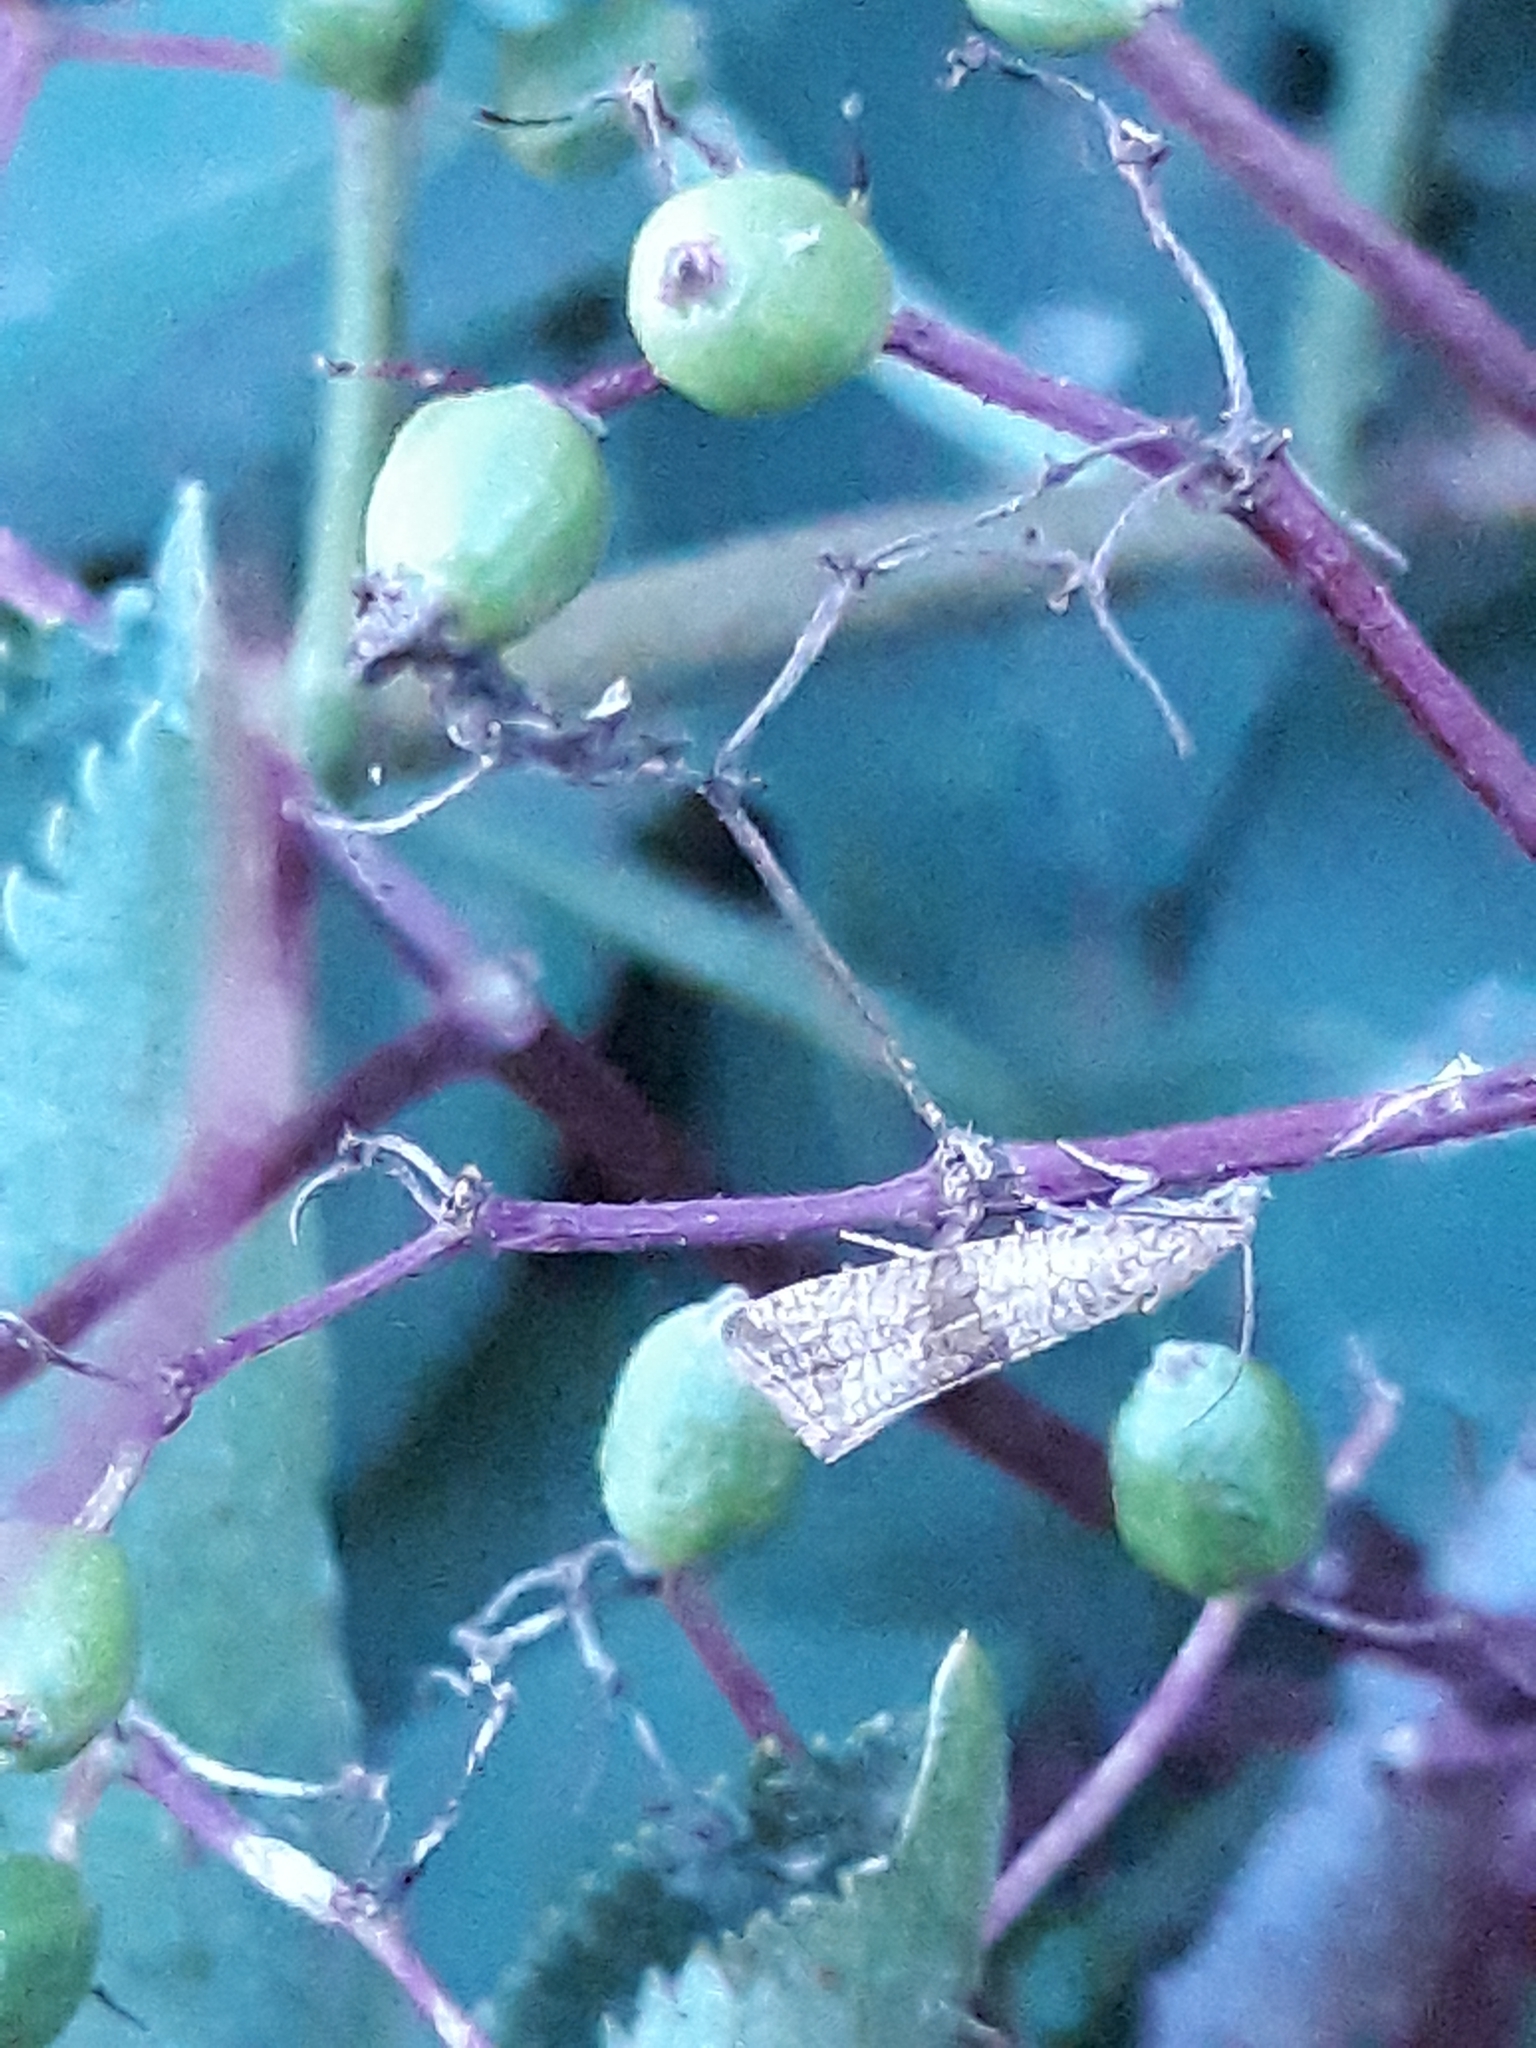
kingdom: Animalia
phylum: Arthropoda
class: Insecta
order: Lepidoptera
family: Tortricidae
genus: Celypha
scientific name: Celypha striana
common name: Barred marble
